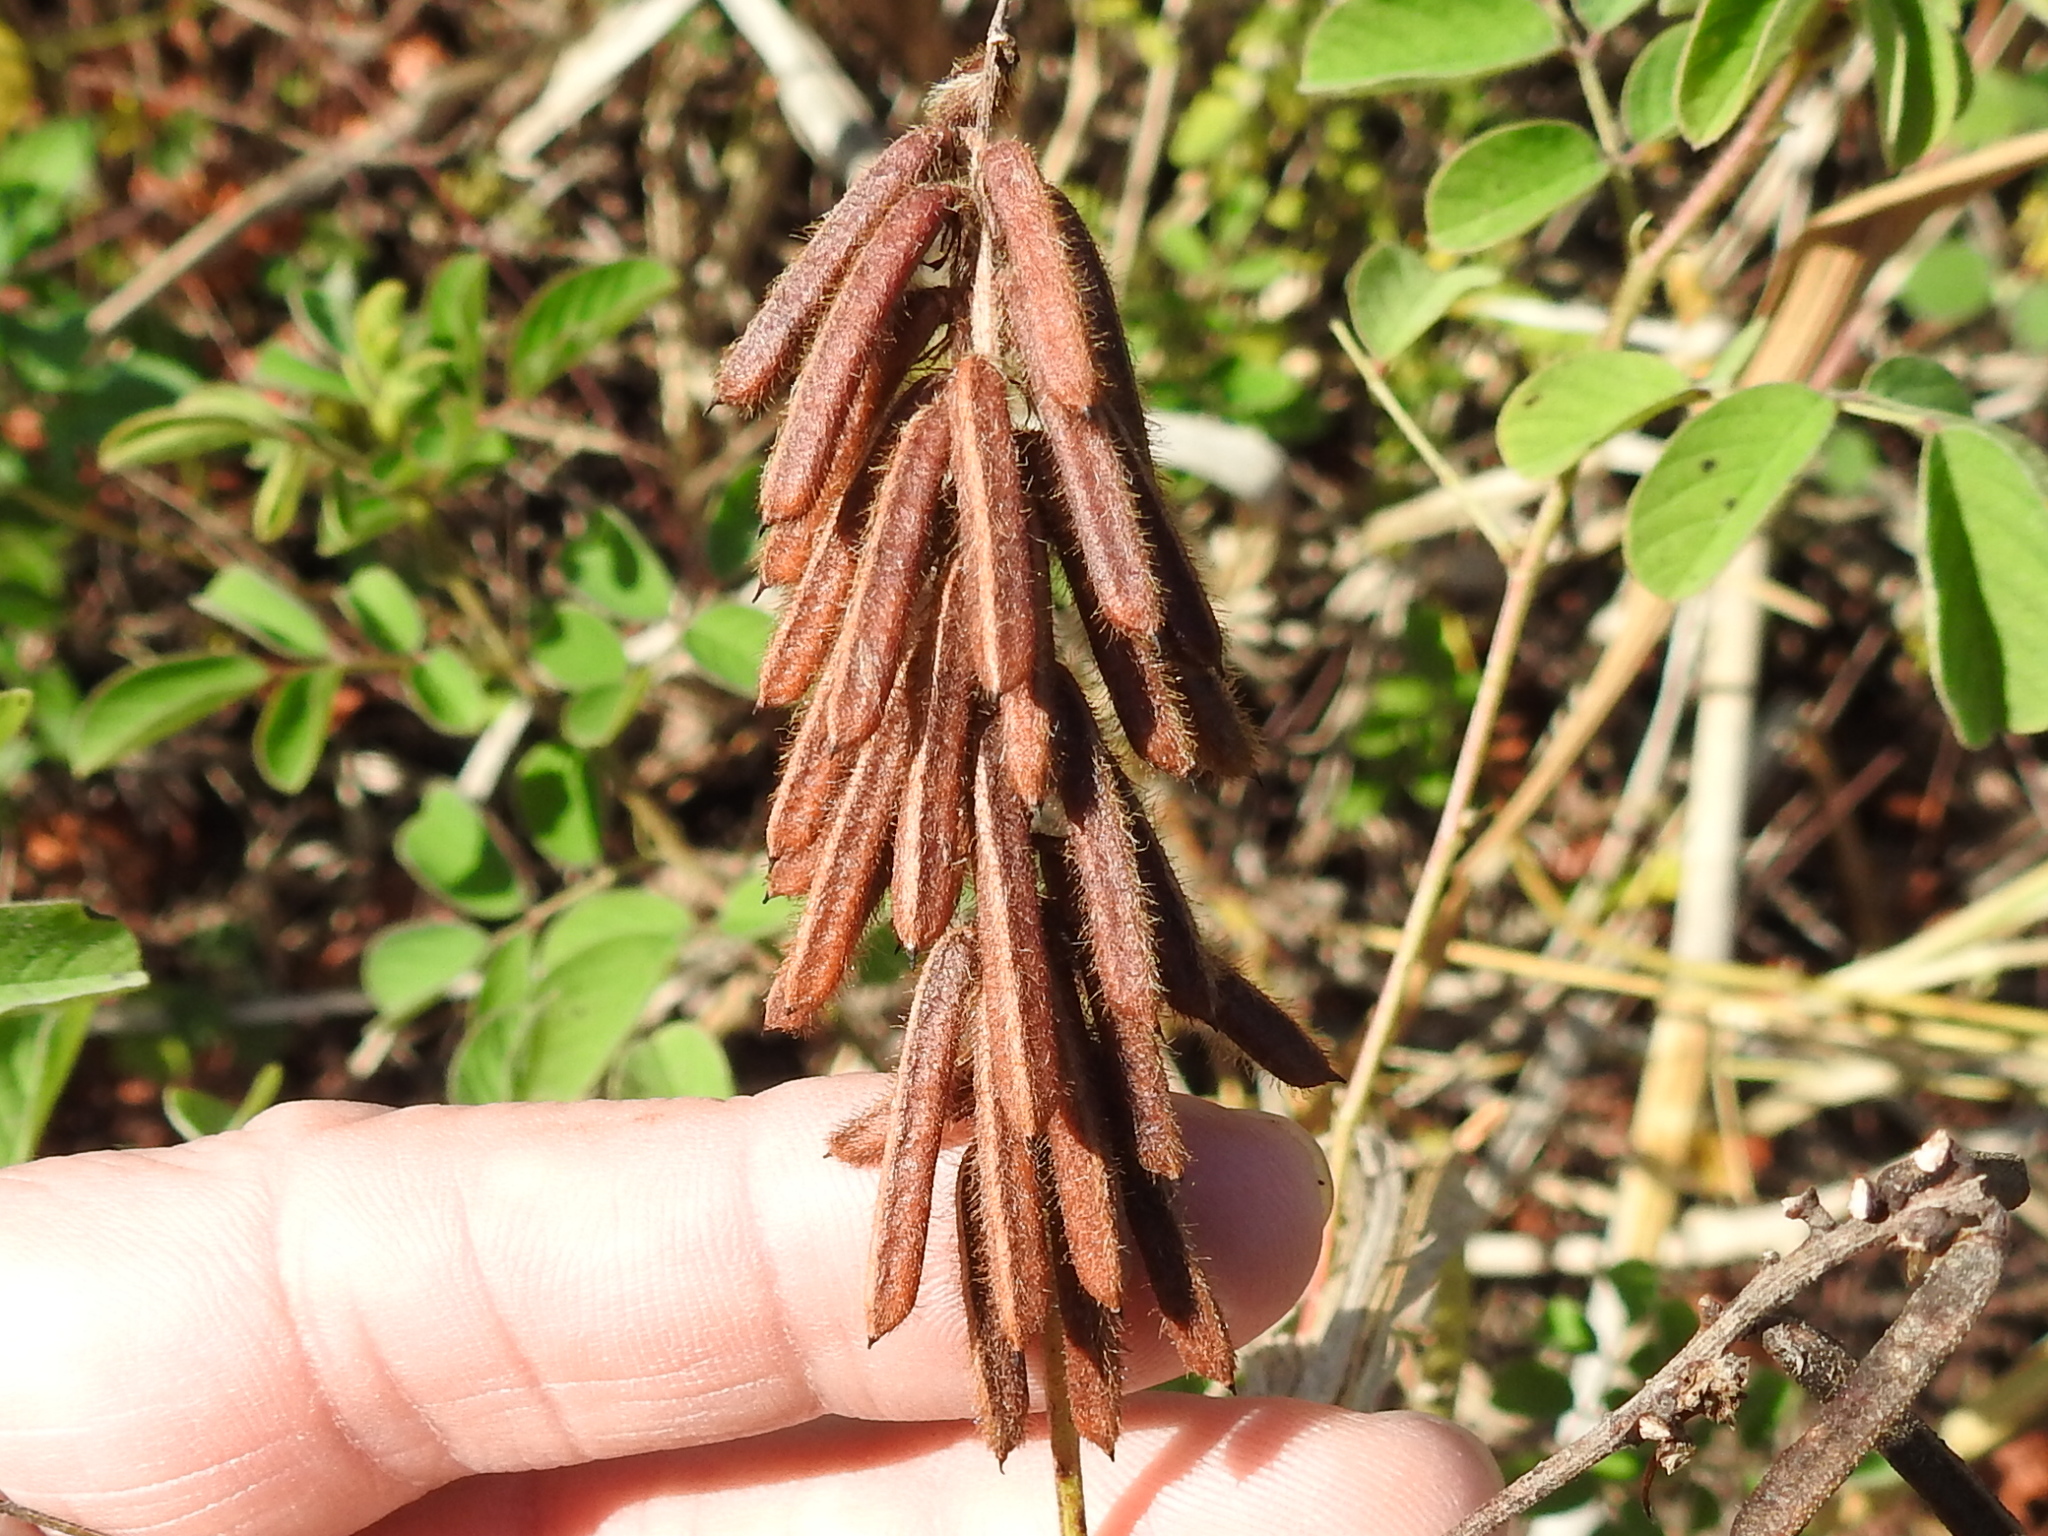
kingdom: Plantae
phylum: Tracheophyta
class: Magnoliopsida
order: Fabales
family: Fabaceae
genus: Indigofera
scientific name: Indigofera hirsuta
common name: Hairy indigo
